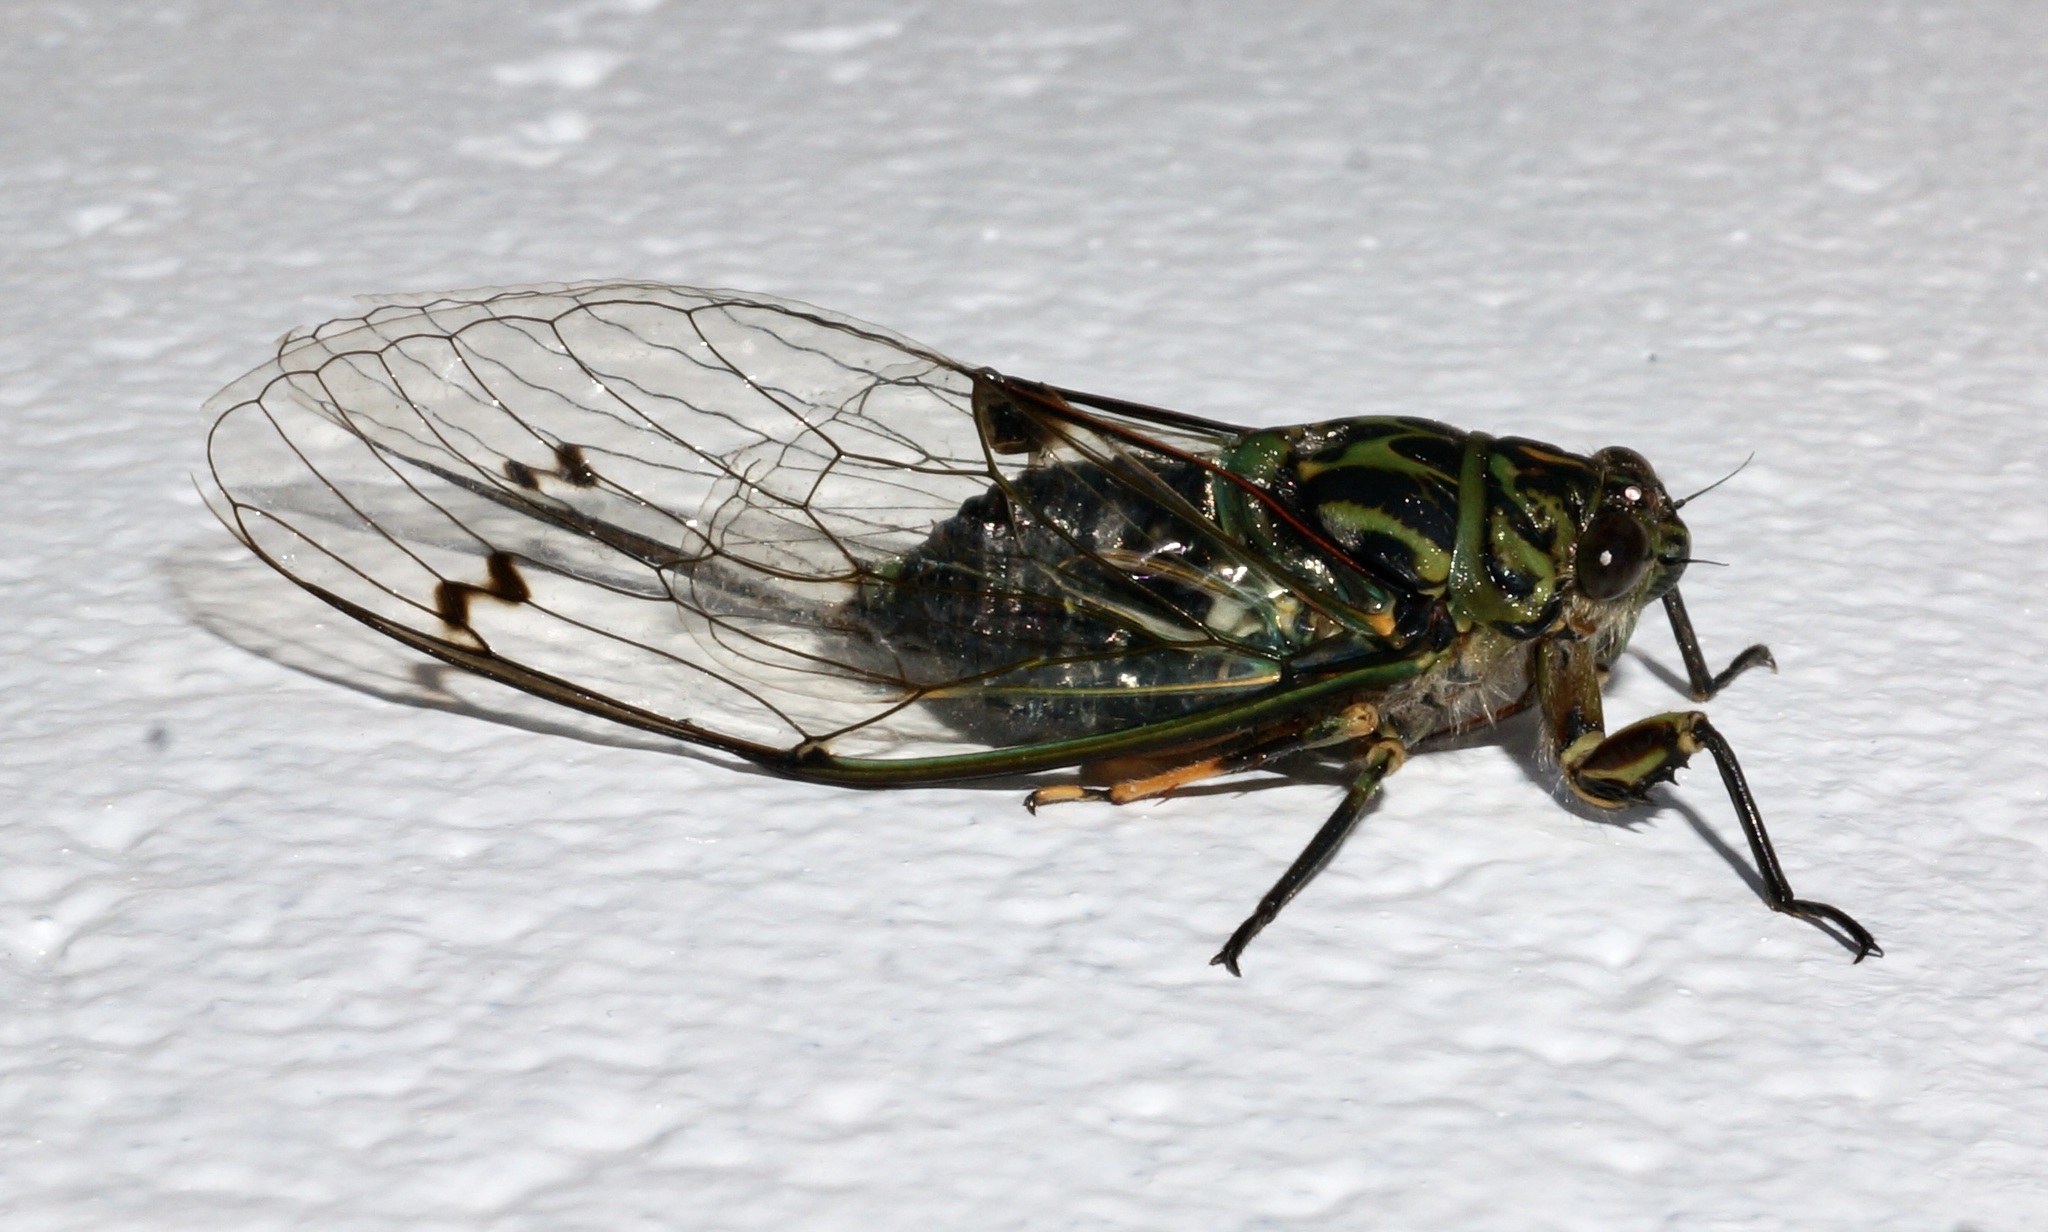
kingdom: Animalia
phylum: Arthropoda
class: Insecta
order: Hemiptera
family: Cicadidae
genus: Amphipsalta
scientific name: Amphipsalta zelandica
